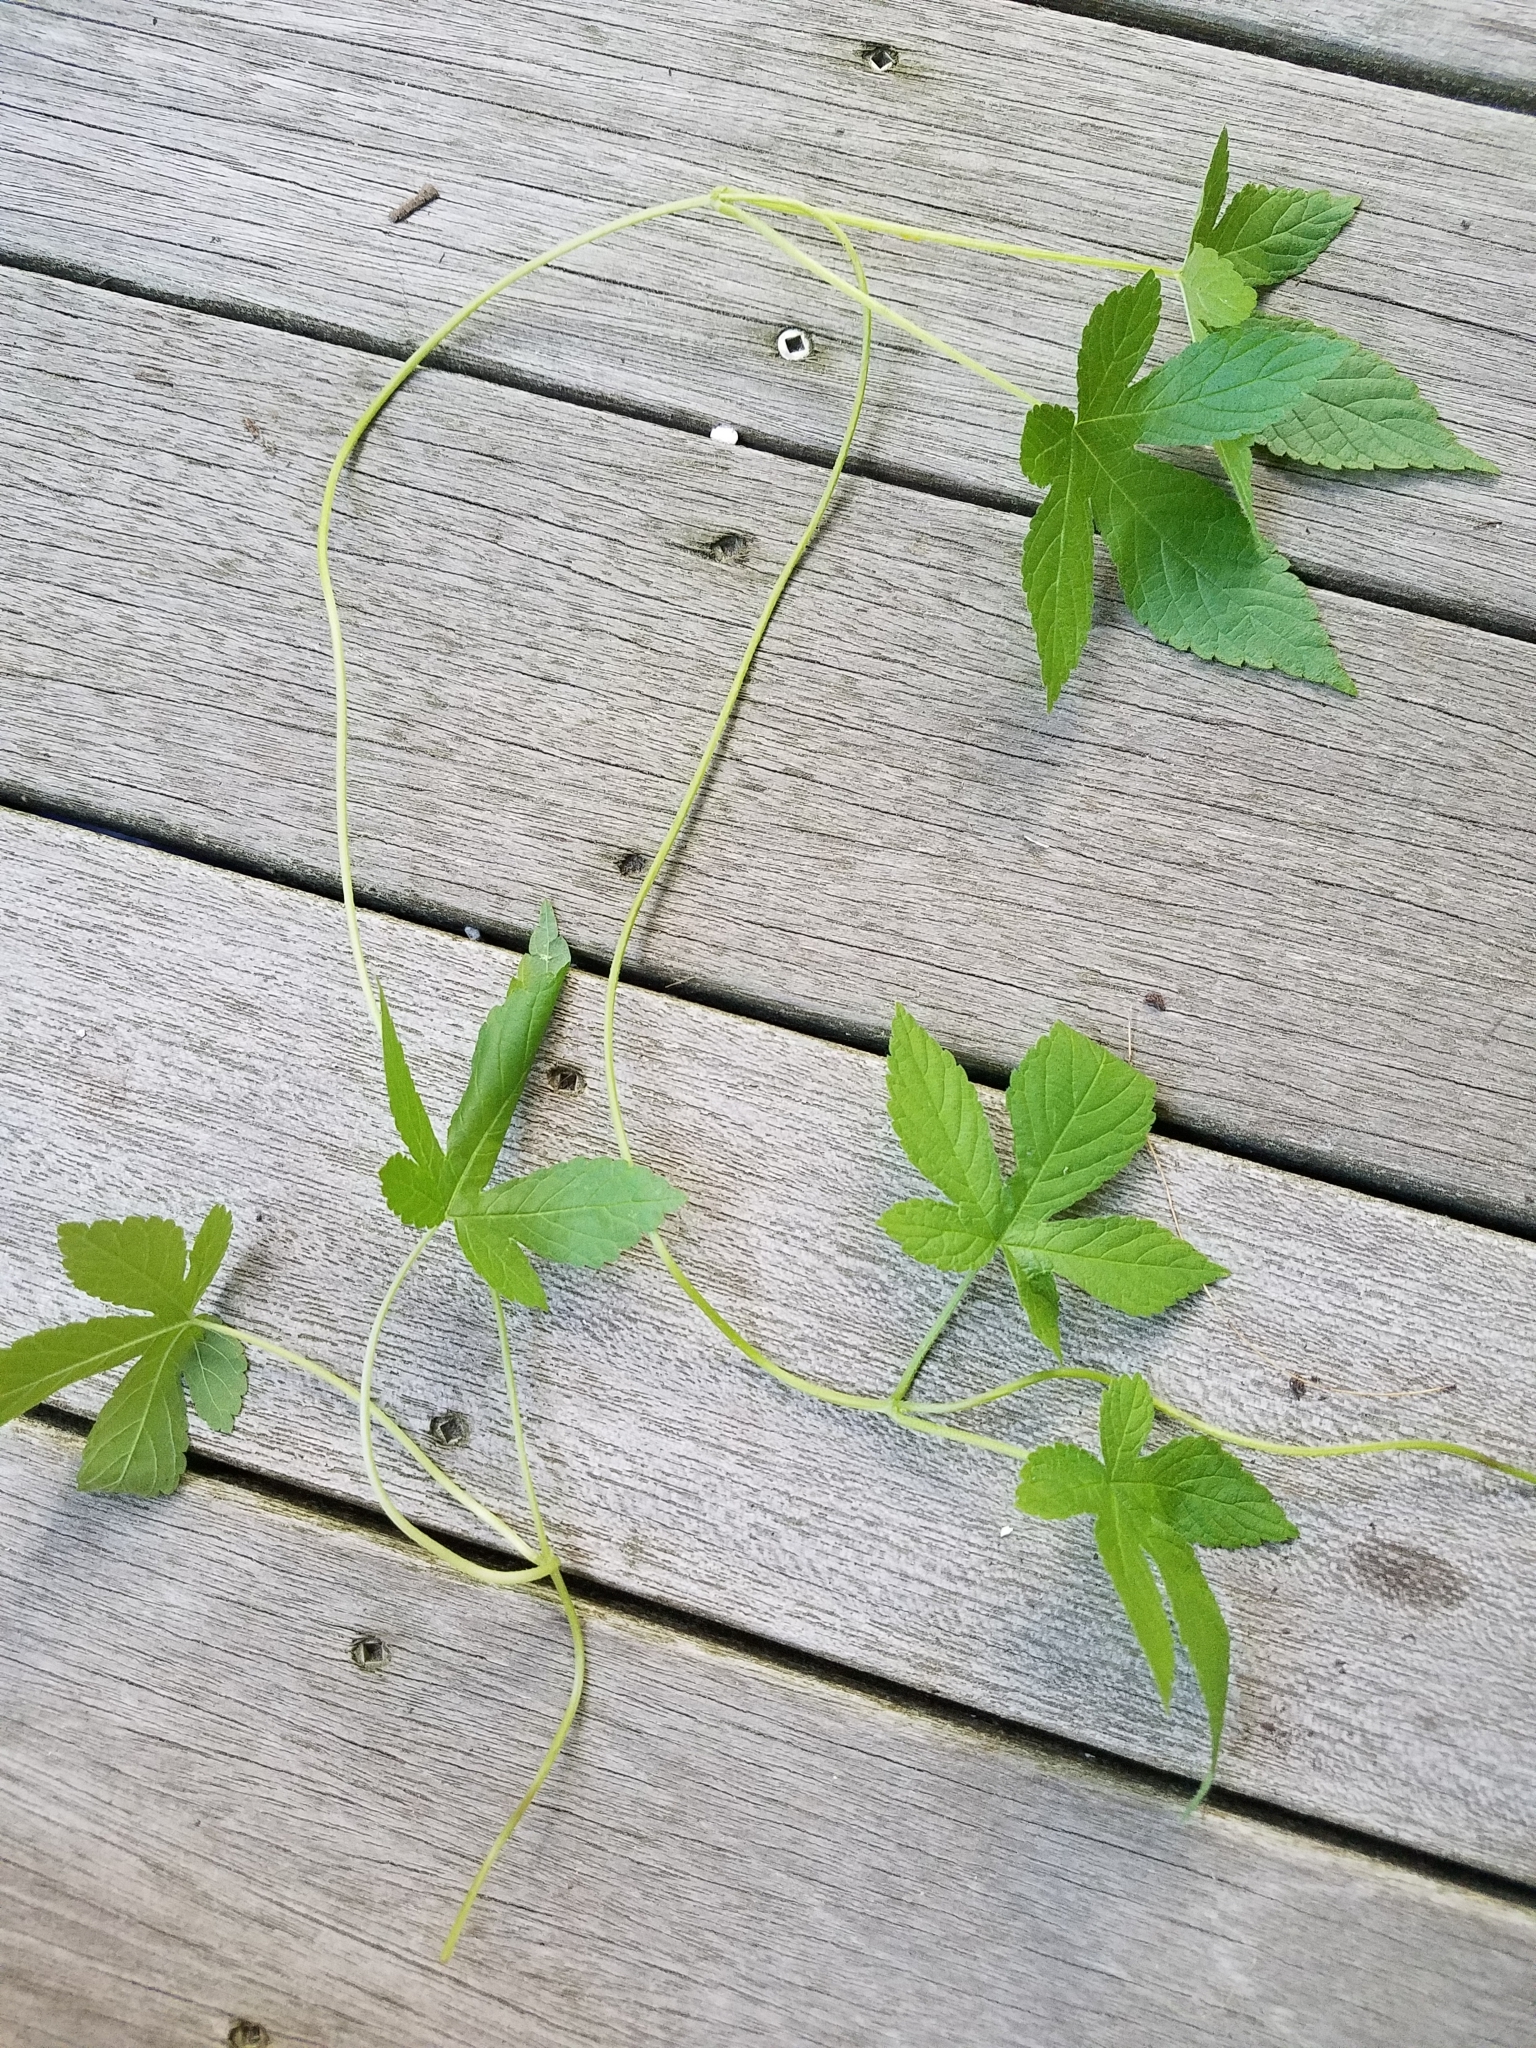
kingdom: Plantae
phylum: Tracheophyta
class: Magnoliopsida
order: Rosales
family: Cannabaceae
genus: Humulus
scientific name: Humulus scandens
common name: Japanese hop
